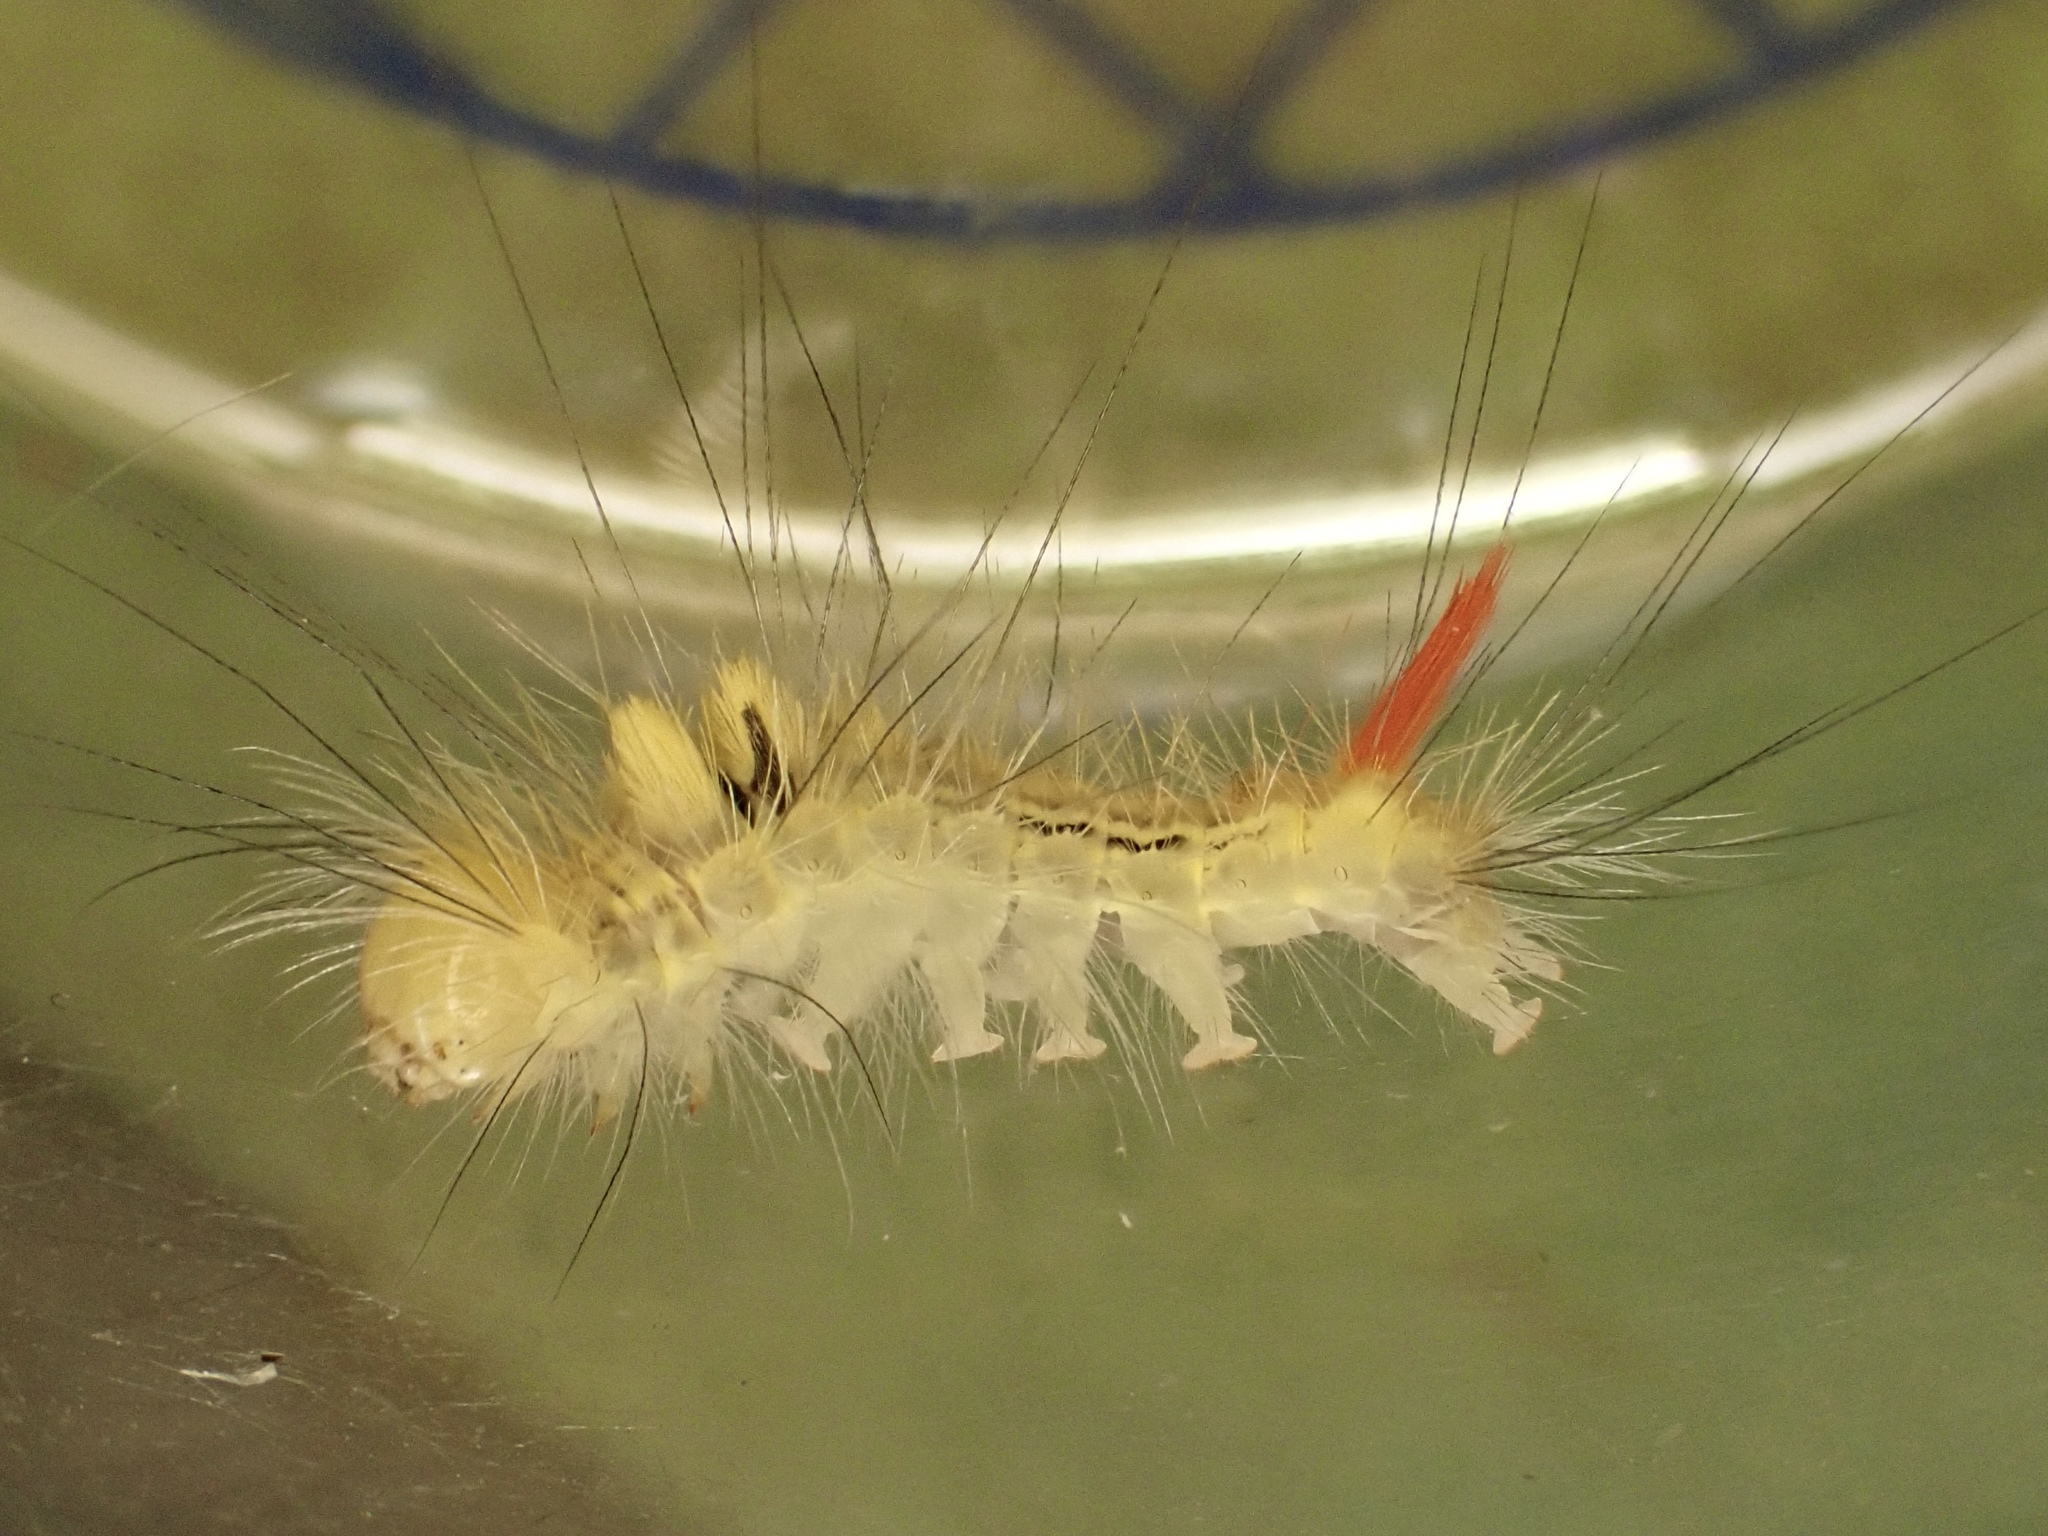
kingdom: Animalia
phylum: Arthropoda
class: Insecta
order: Lepidoptera
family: Erebidae
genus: Calliteara
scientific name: Calliteara pudibunda
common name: Pale tussock
